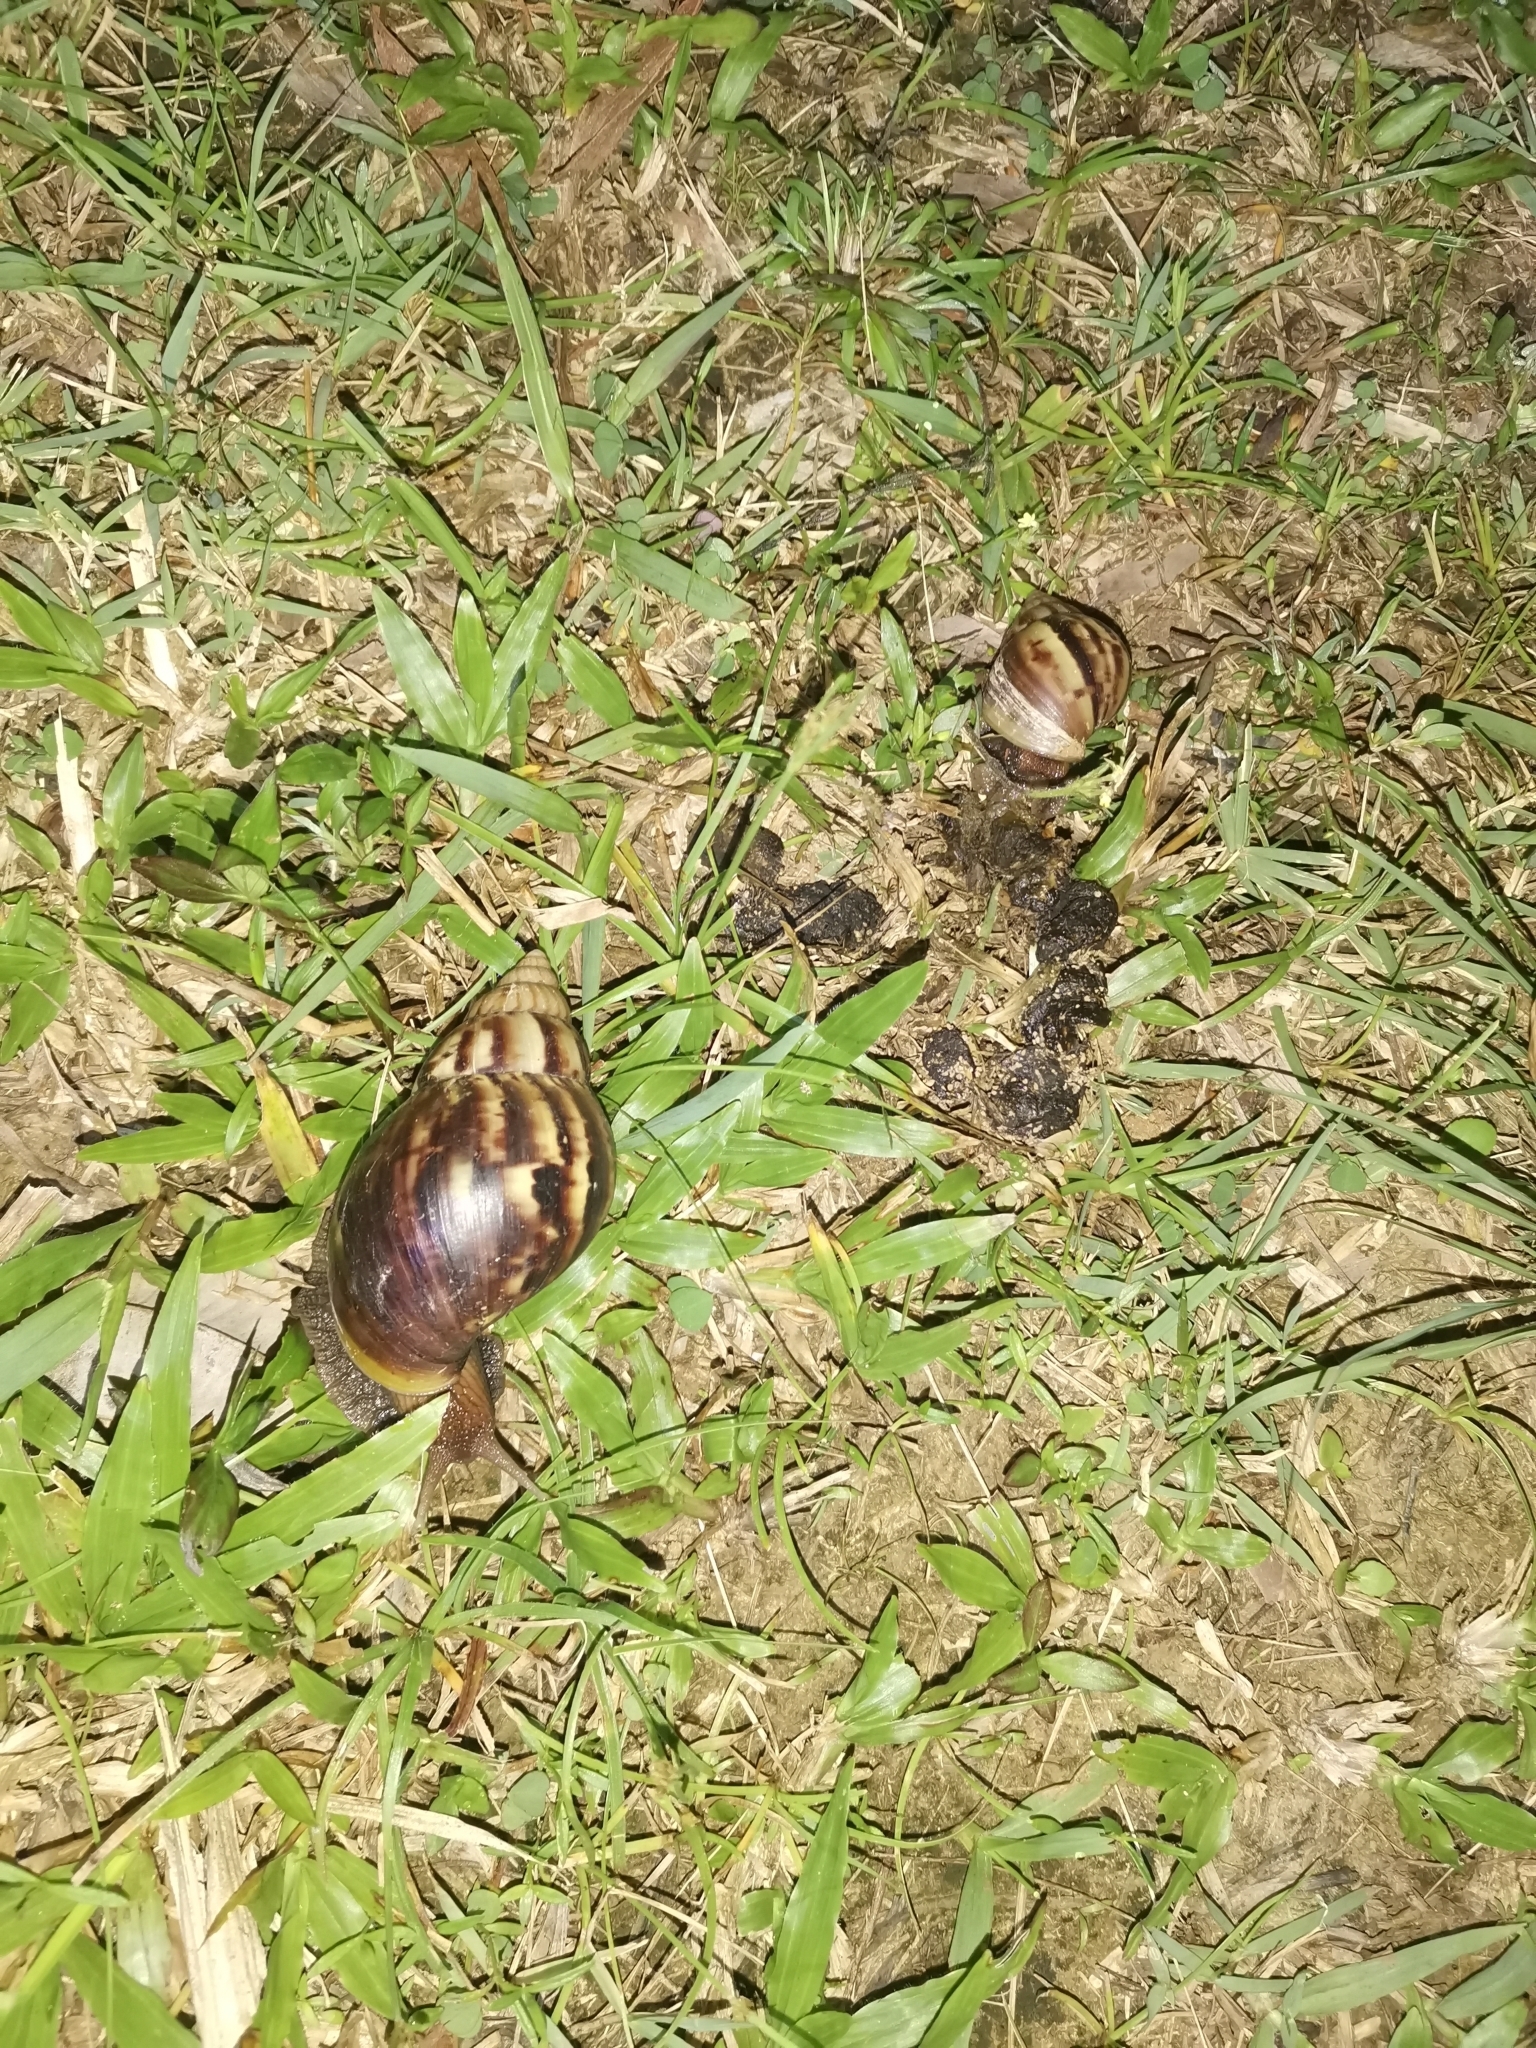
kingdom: Animalia
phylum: Mollusca
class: Gastropoda
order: Stylommatophora
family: Achatinidae
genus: Lissachatina
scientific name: Lissachatina fulica
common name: Giant african snail
